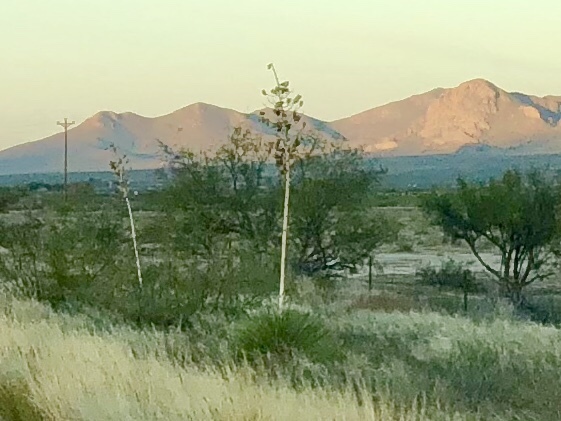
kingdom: Plantae
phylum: Tracheophyta
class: Liliopsida
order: Asparagales
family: Asparagaceae
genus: Yucca
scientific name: Yucca elata
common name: Palmella
